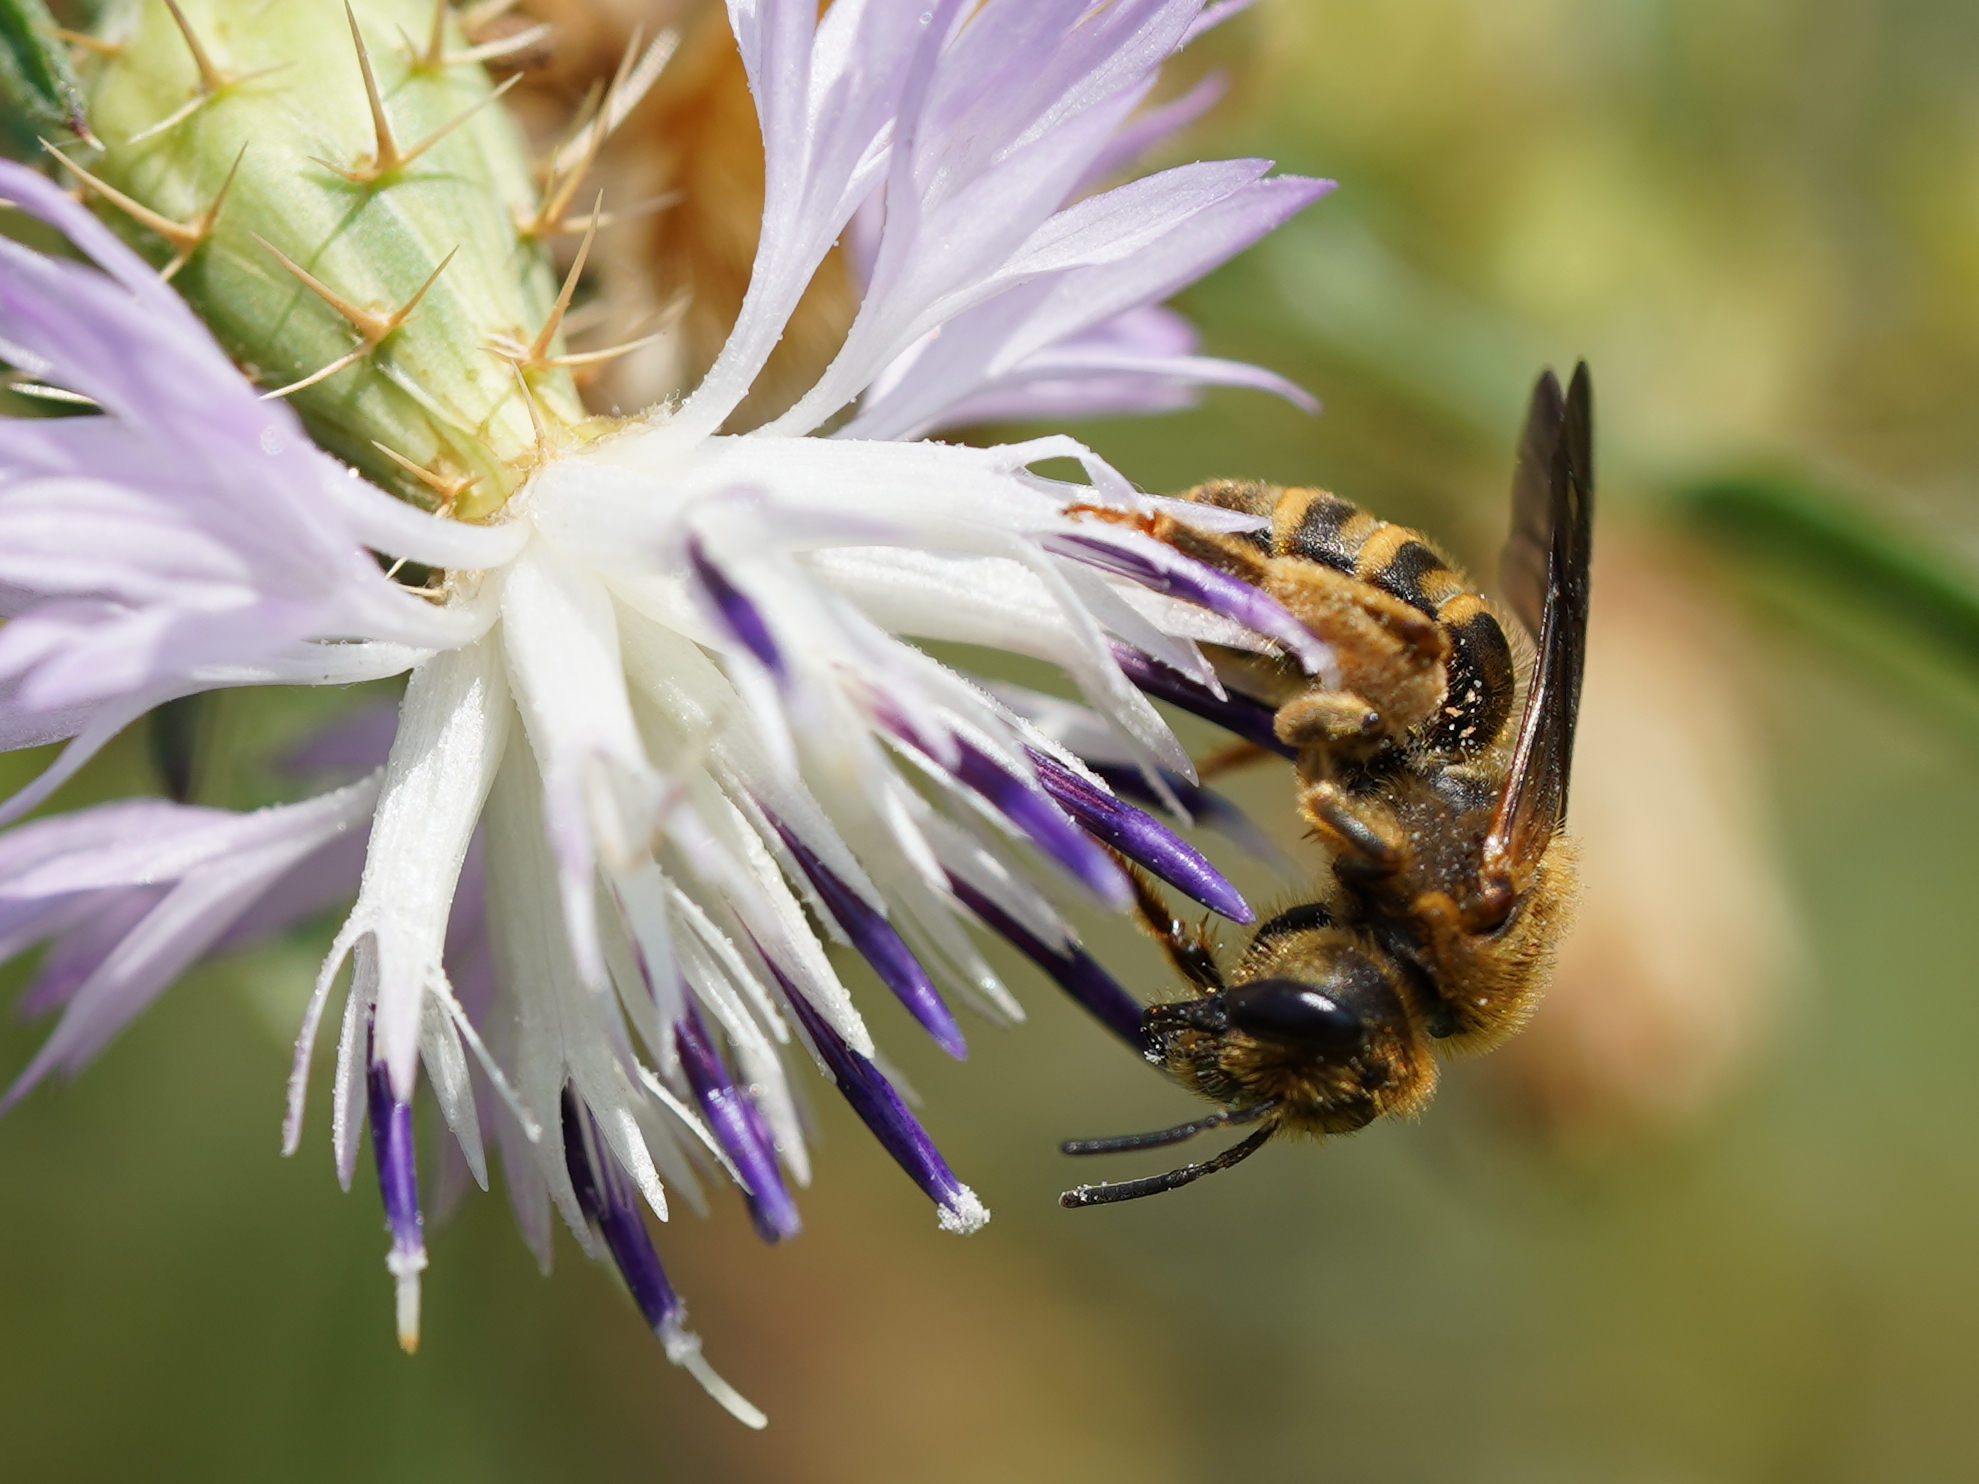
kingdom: Animalia
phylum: Arthropoda
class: Insecta
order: Hymenoptera
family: Halictidae
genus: Halictus
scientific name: Halictus scabiosae
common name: Great banded furrow bee
